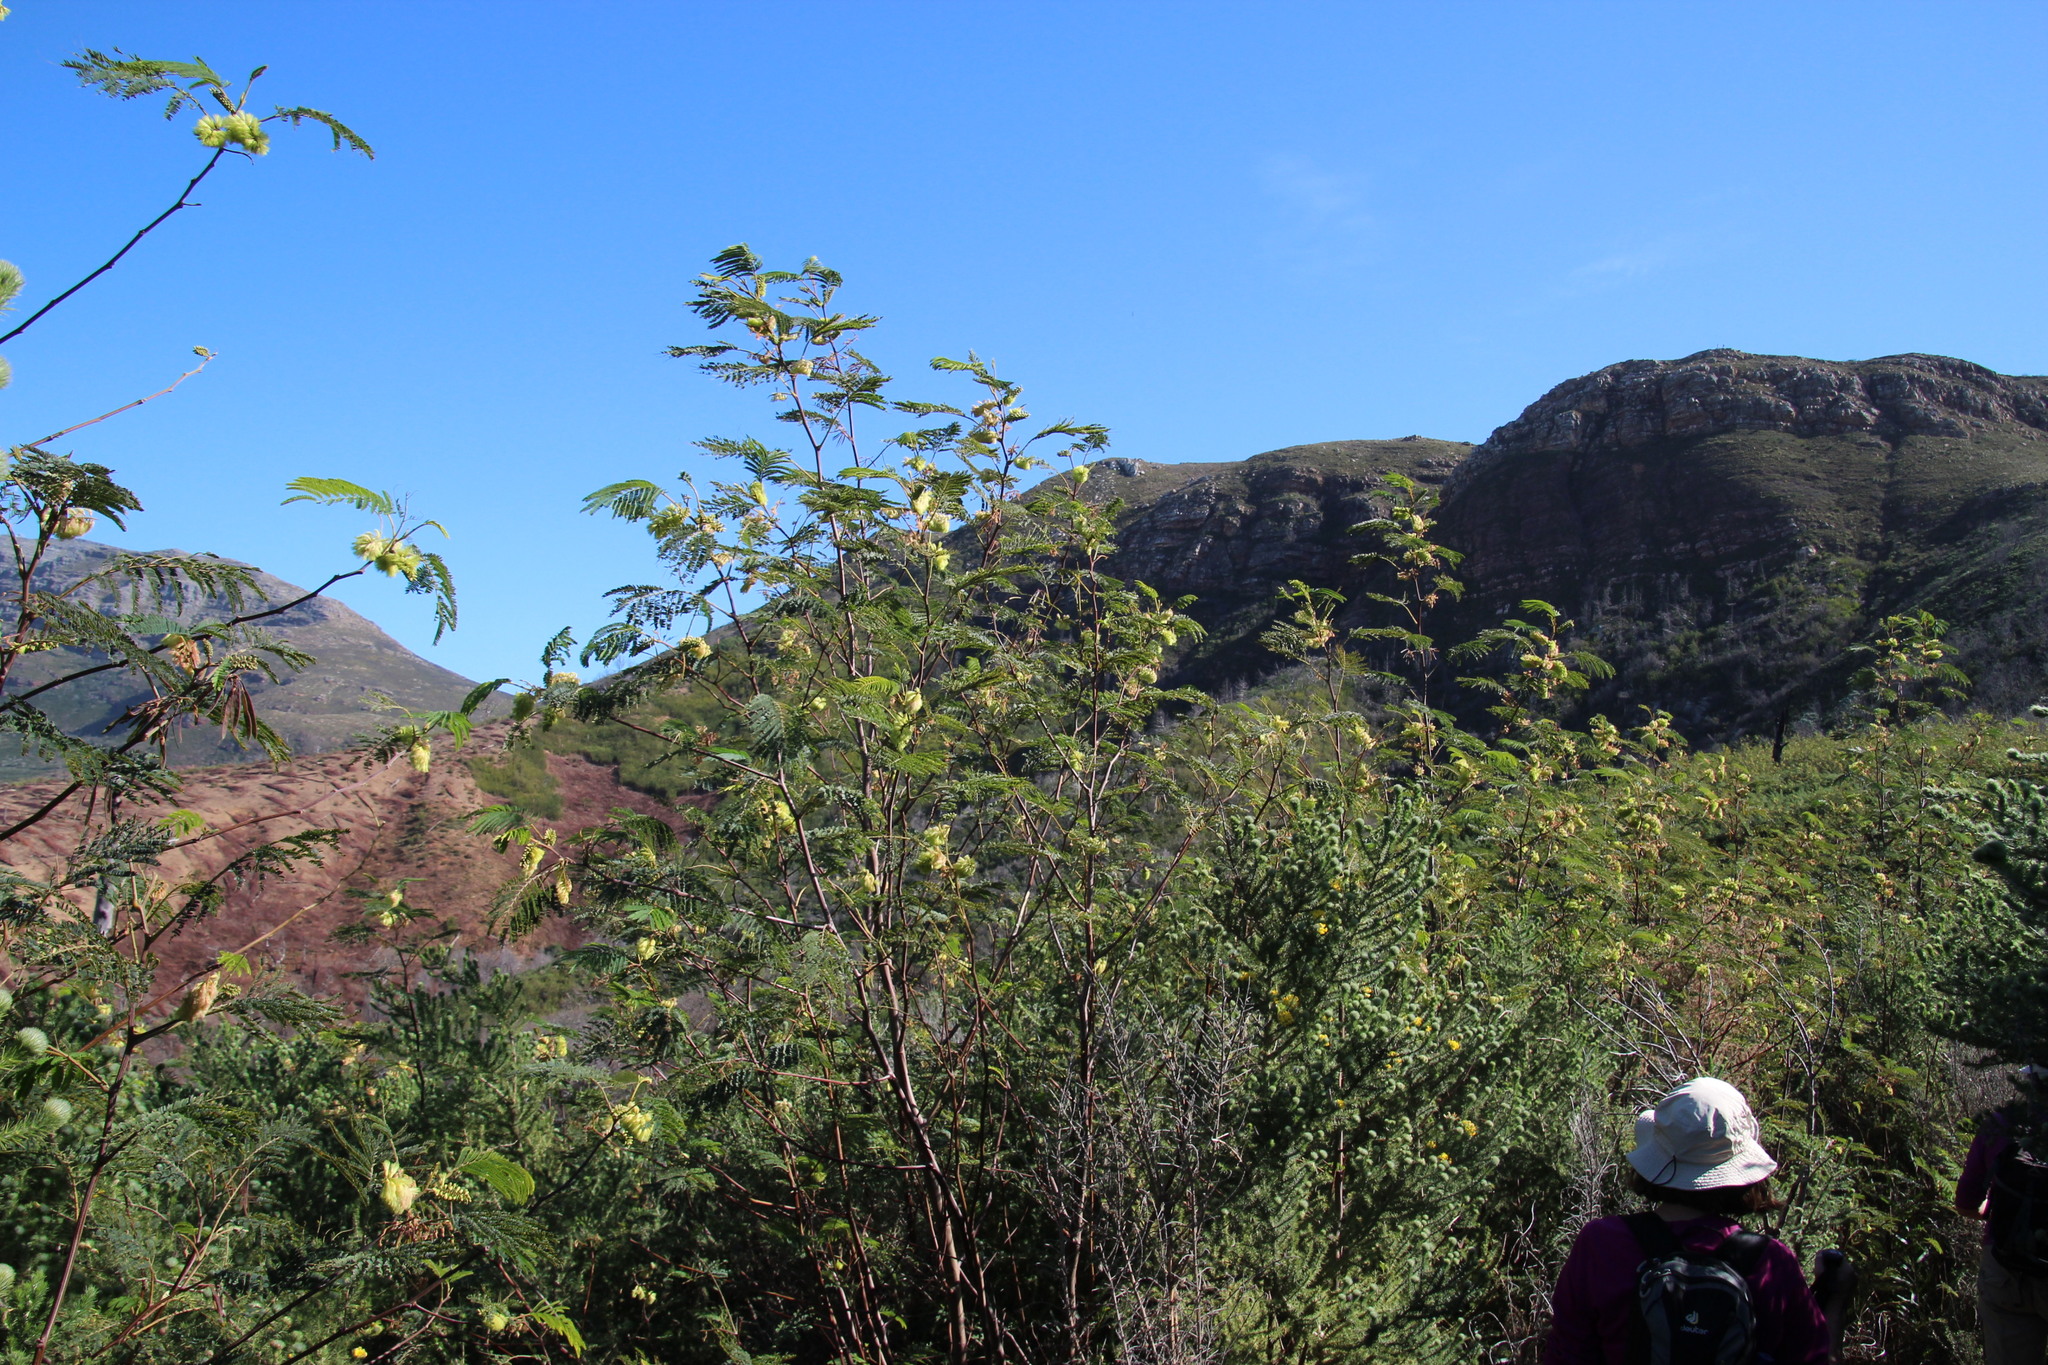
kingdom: Plantae
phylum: Tracheophyta
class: Magnoliopsida
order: Fabales
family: Fabaceae
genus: Paraserianthes
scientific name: Paraserianthes lophantha
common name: Plume albizia
